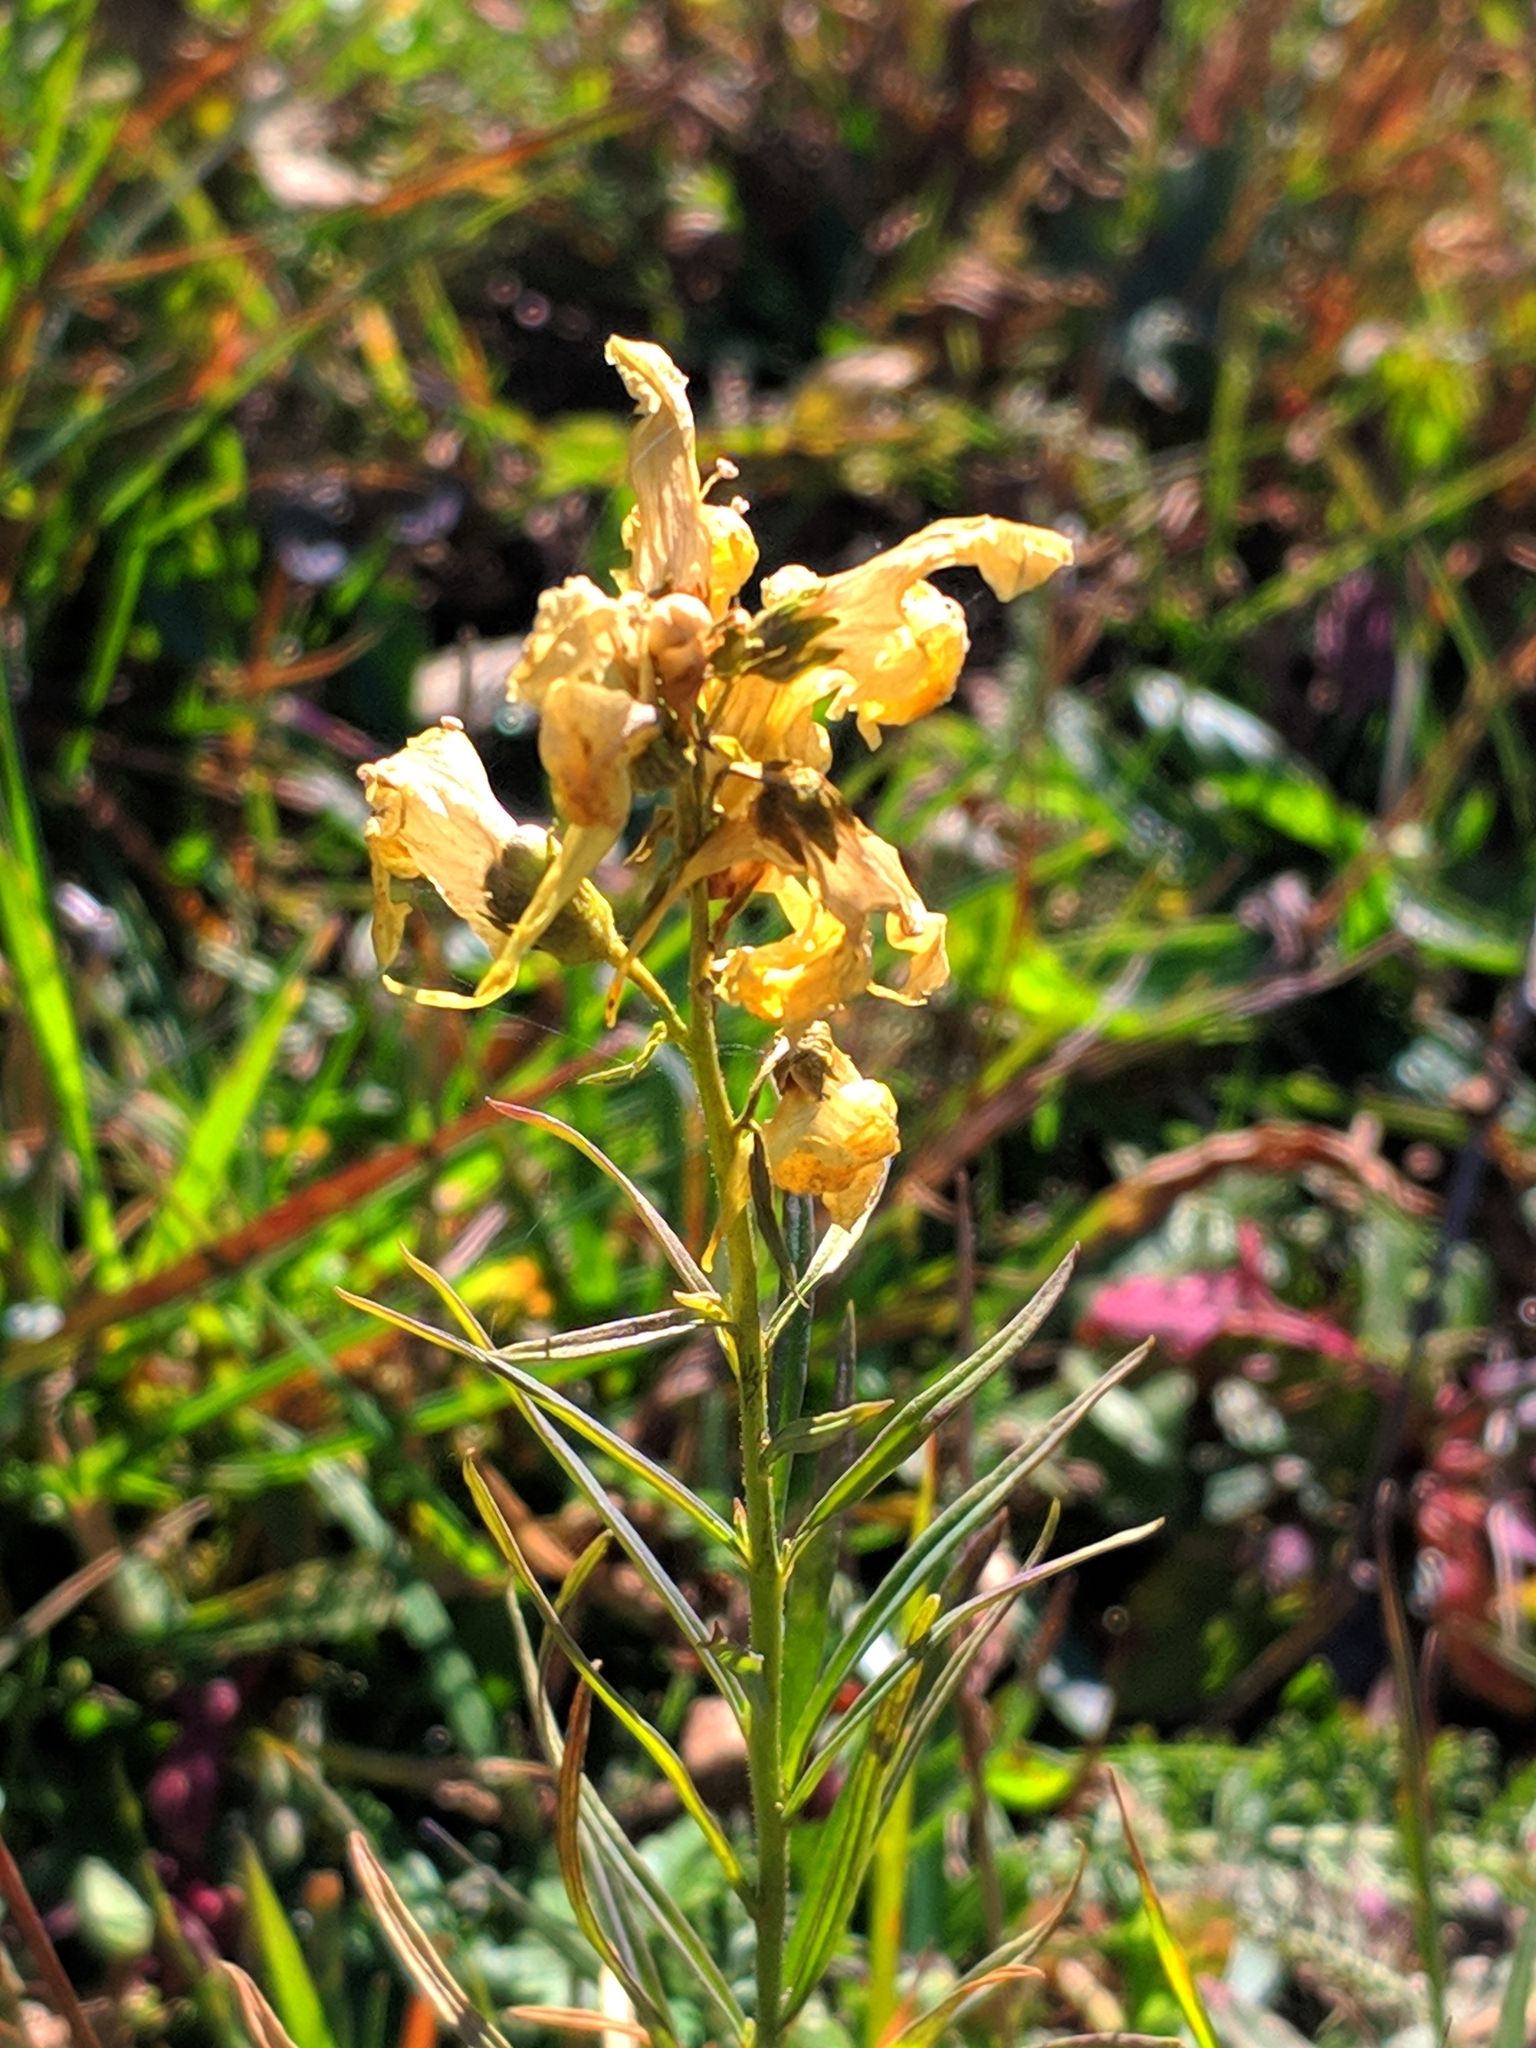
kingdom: Plantae
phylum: Tracheophyta
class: Magnoliopsida
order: Lamiales
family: Plantaginaceae
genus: Linaria
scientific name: Linaria vulgaris
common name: Butter and eggs
